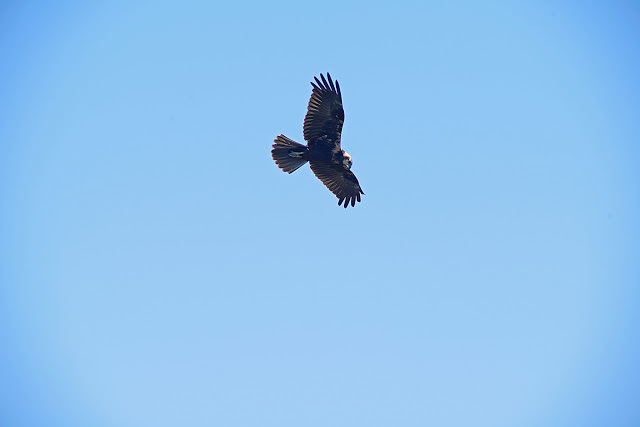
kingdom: Animalia
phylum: Chordata
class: Aves
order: Accipitriformes
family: Accipitridae
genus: Circus
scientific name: Circus aeruginosus
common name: Western marsh harrier
